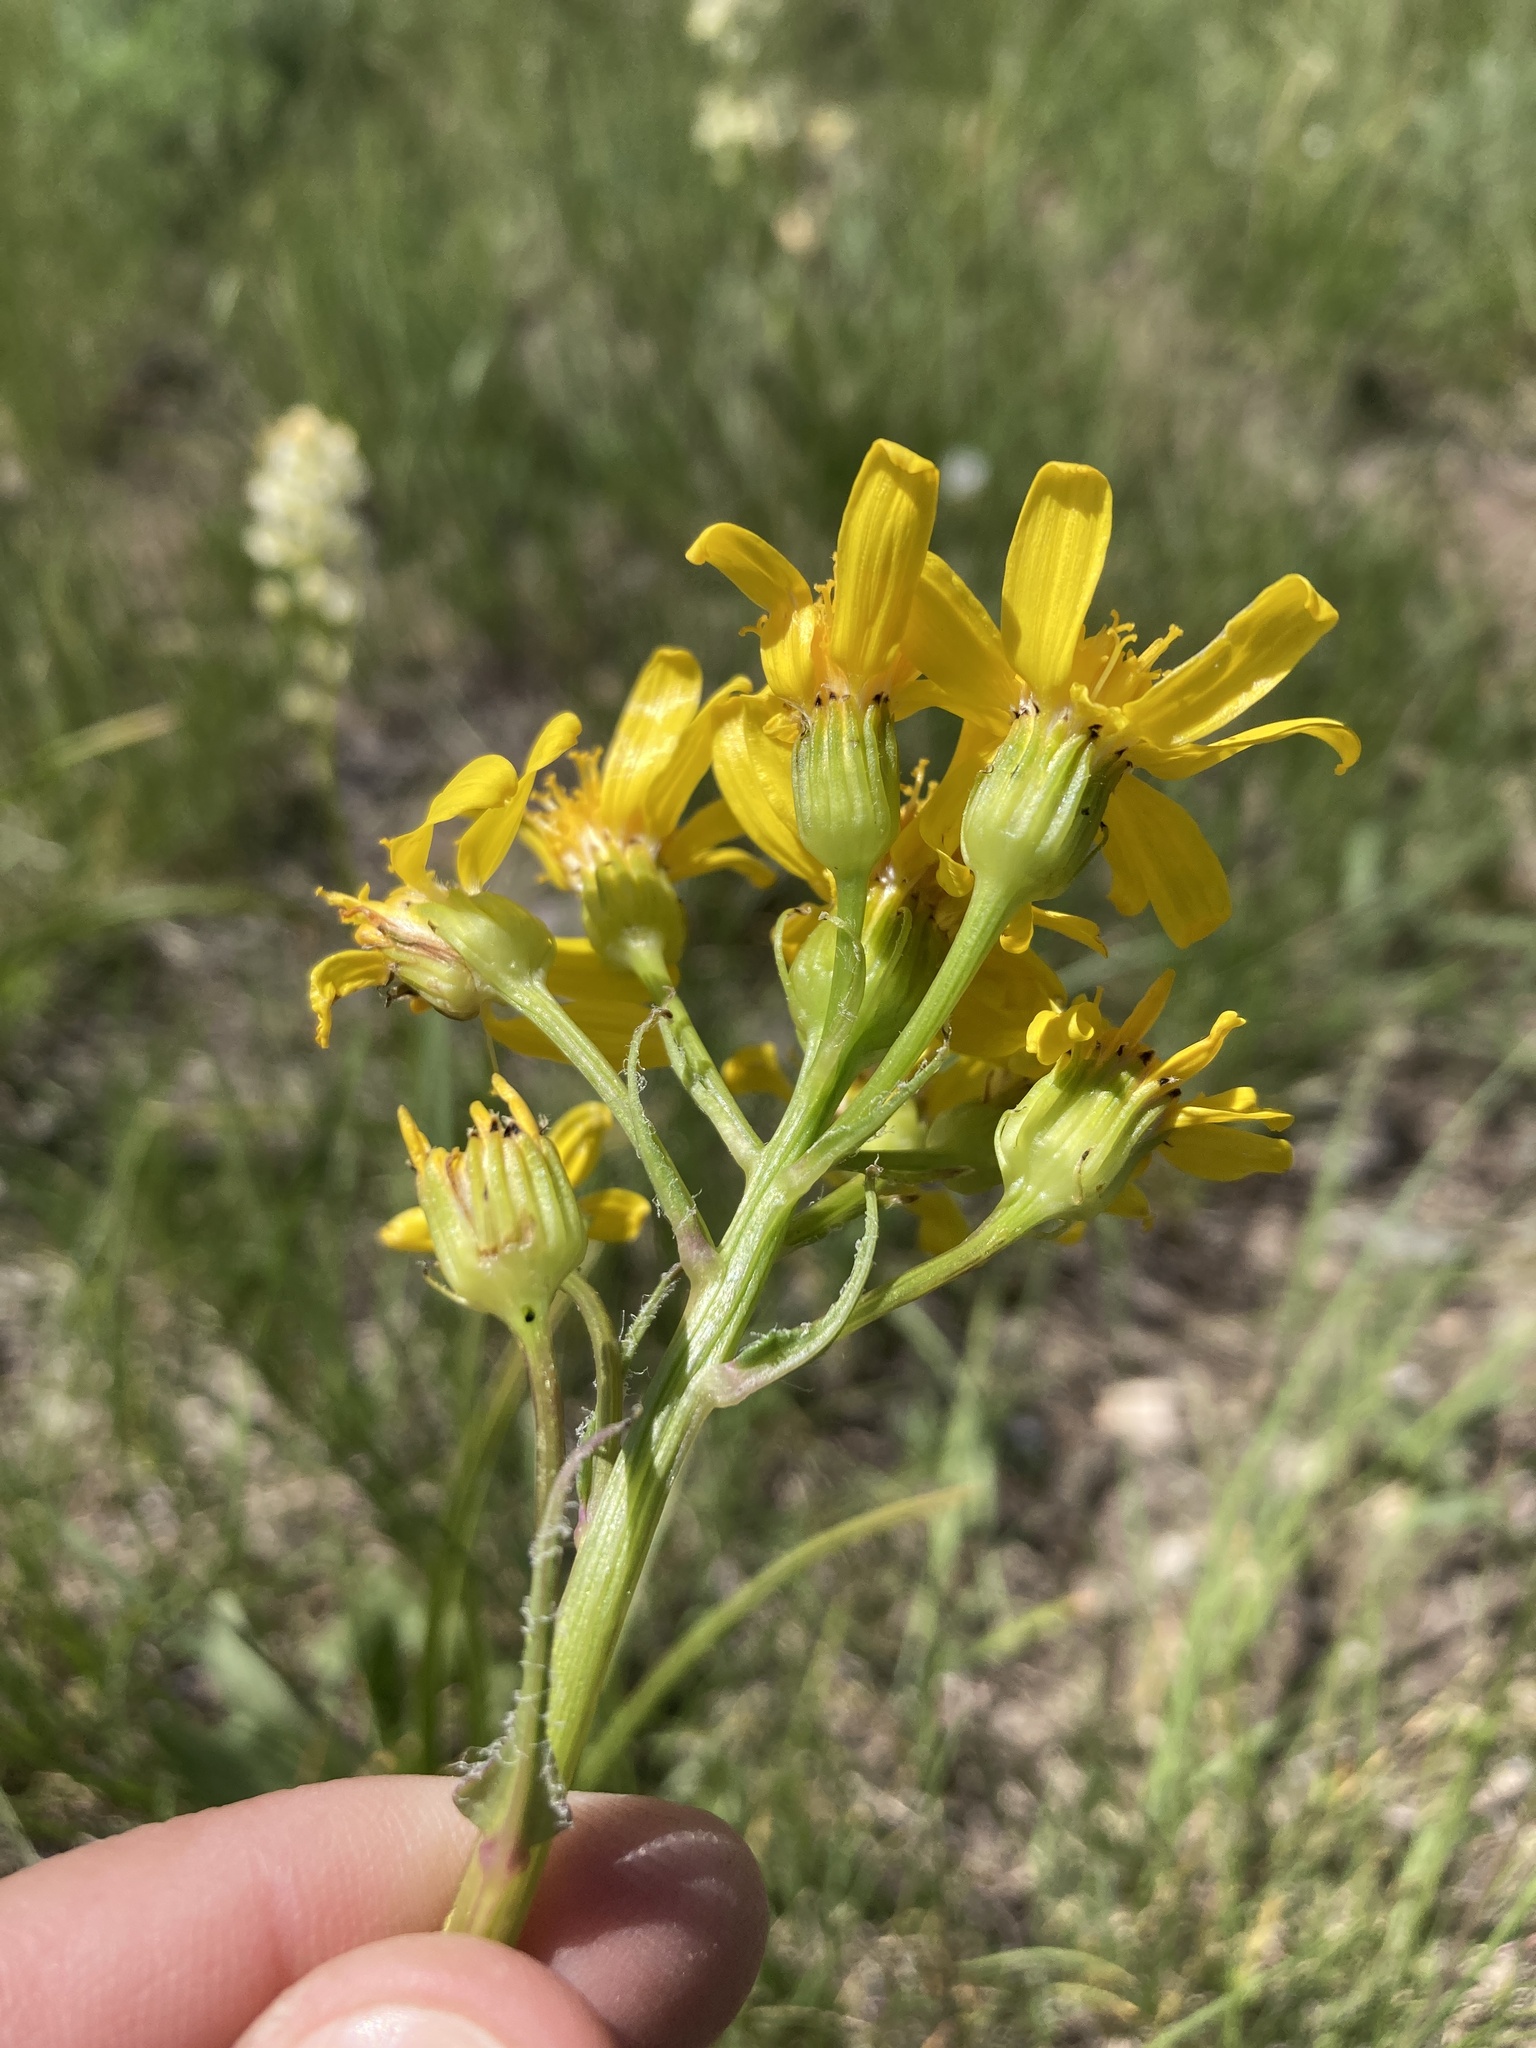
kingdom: Plantae
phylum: Tracheophyta
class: Magnoliopsida
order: Asterales
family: Asteraceae
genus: Senecio
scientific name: Senecio integerrimus
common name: Gaugeplant
